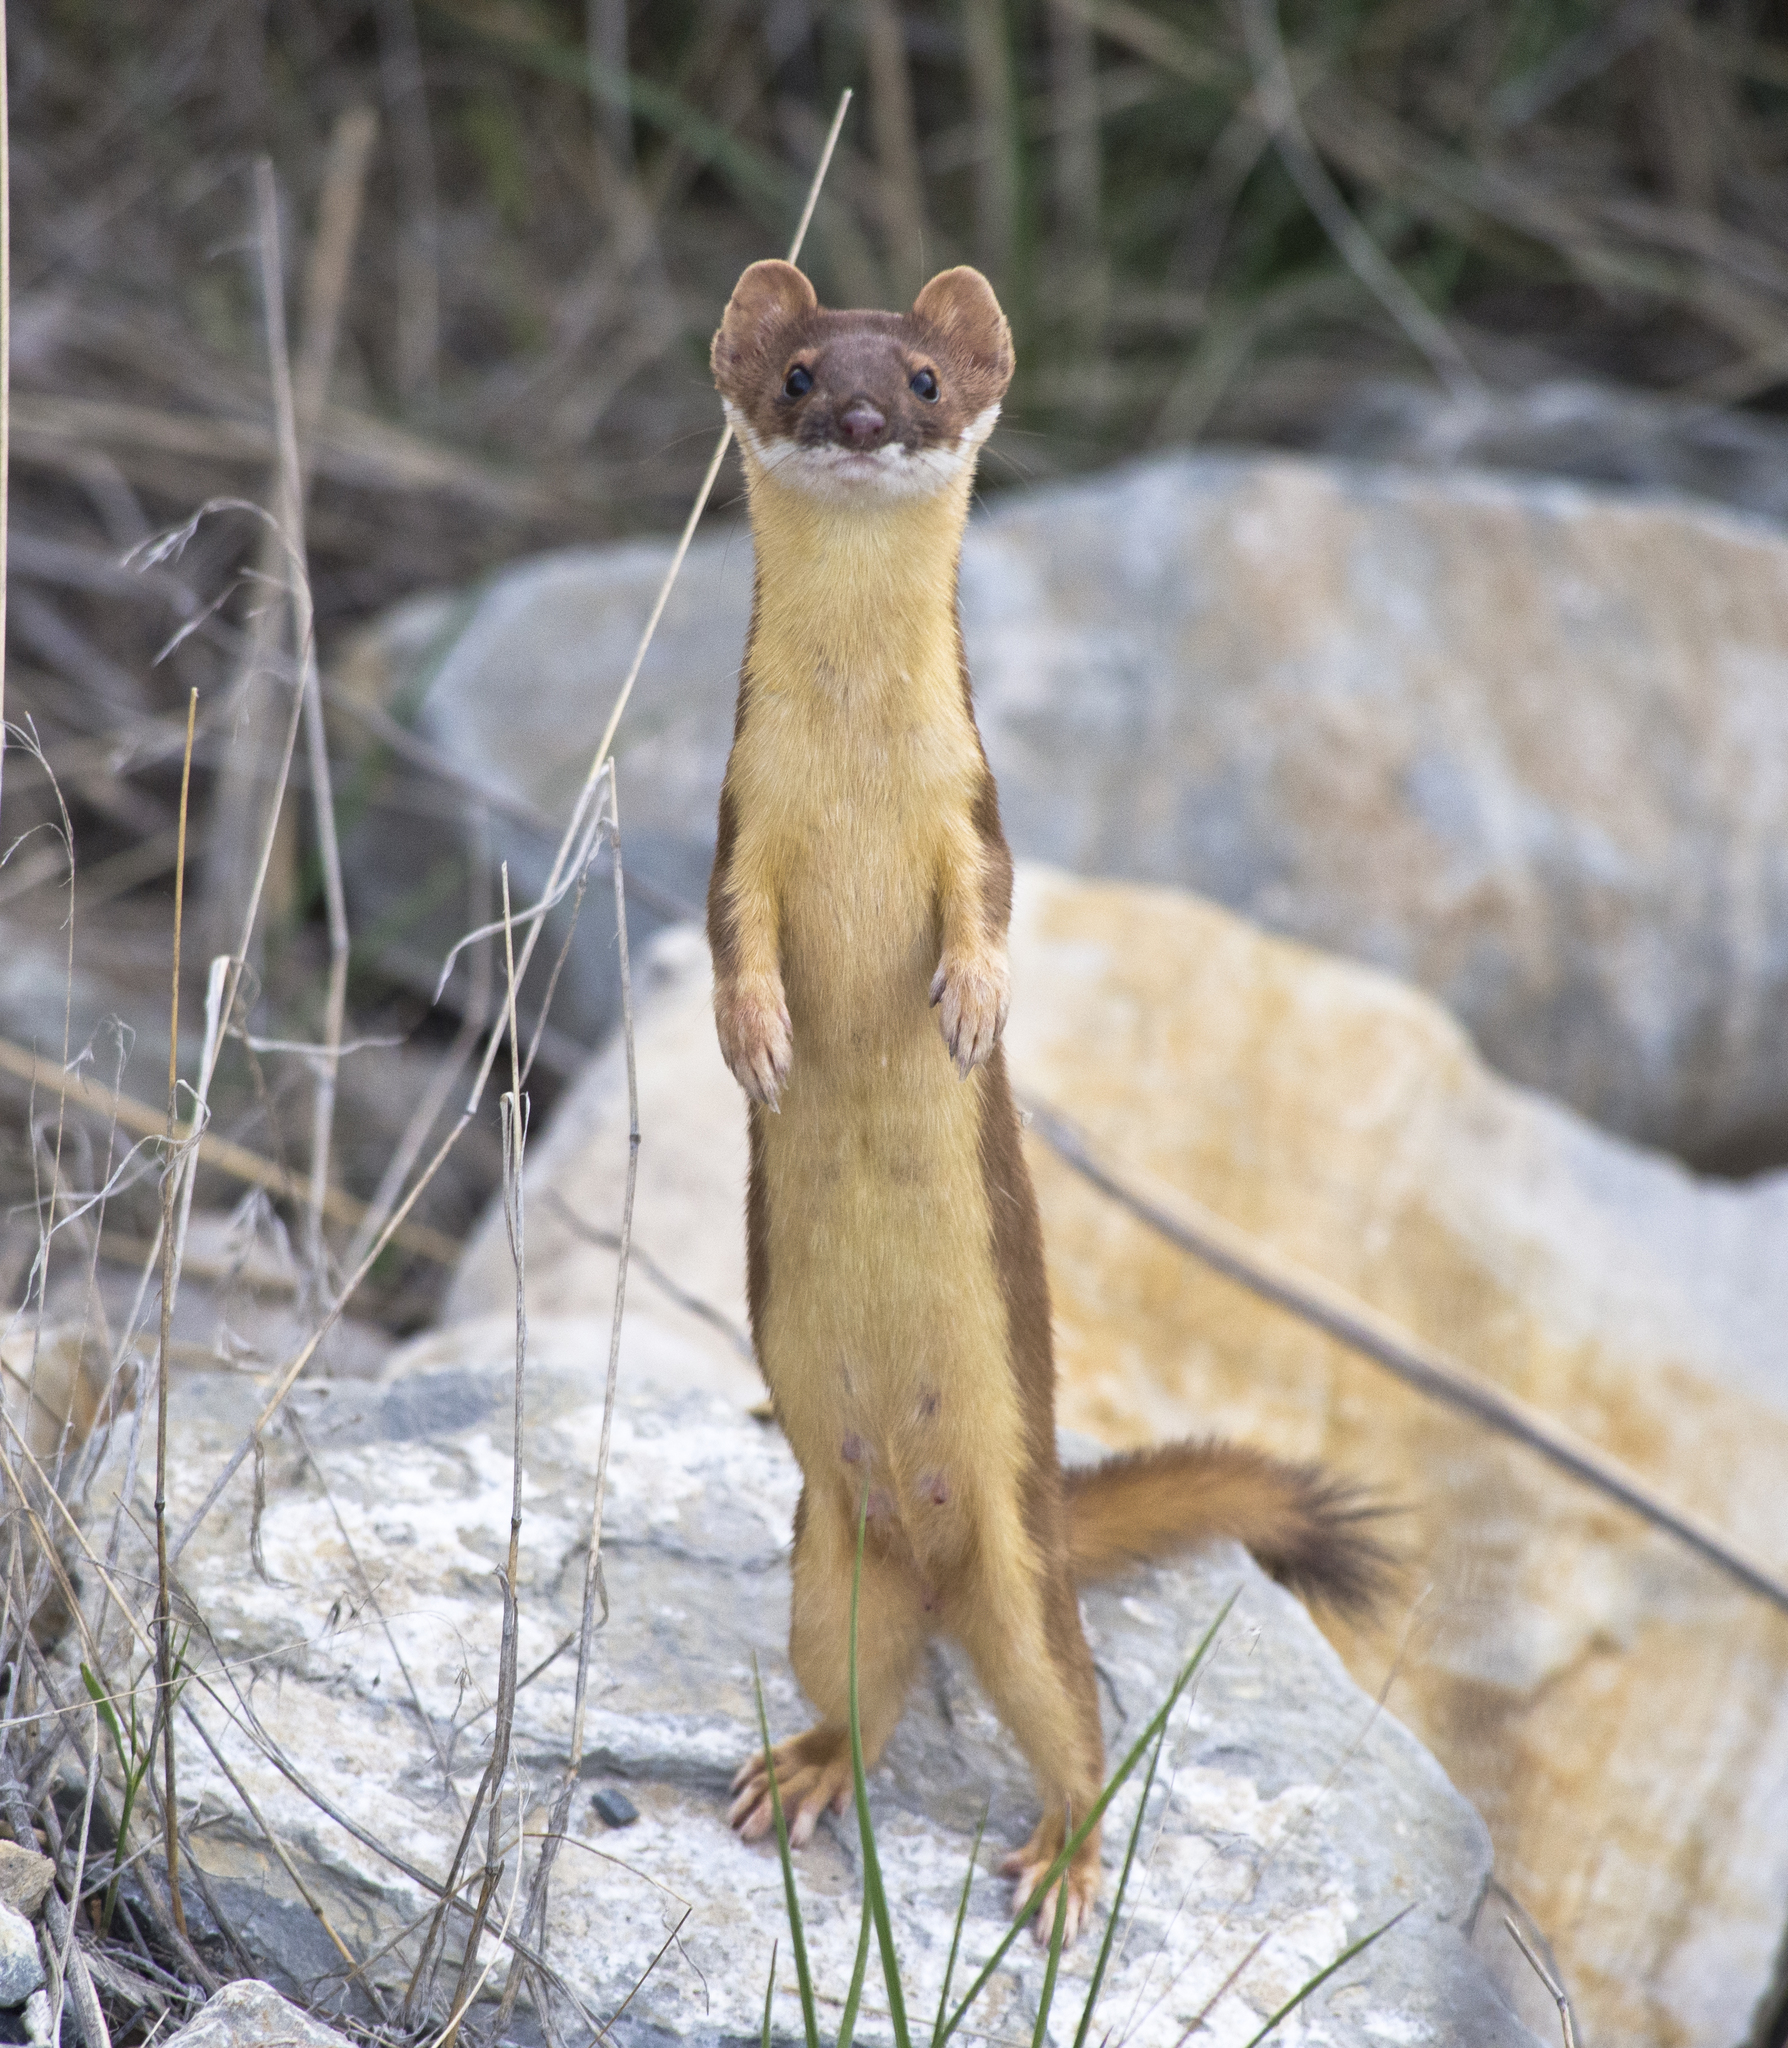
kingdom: Animalia
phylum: Chordata
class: Mammalia
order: Carnivora
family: Mustelidae
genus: Mustela
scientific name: Mustela
